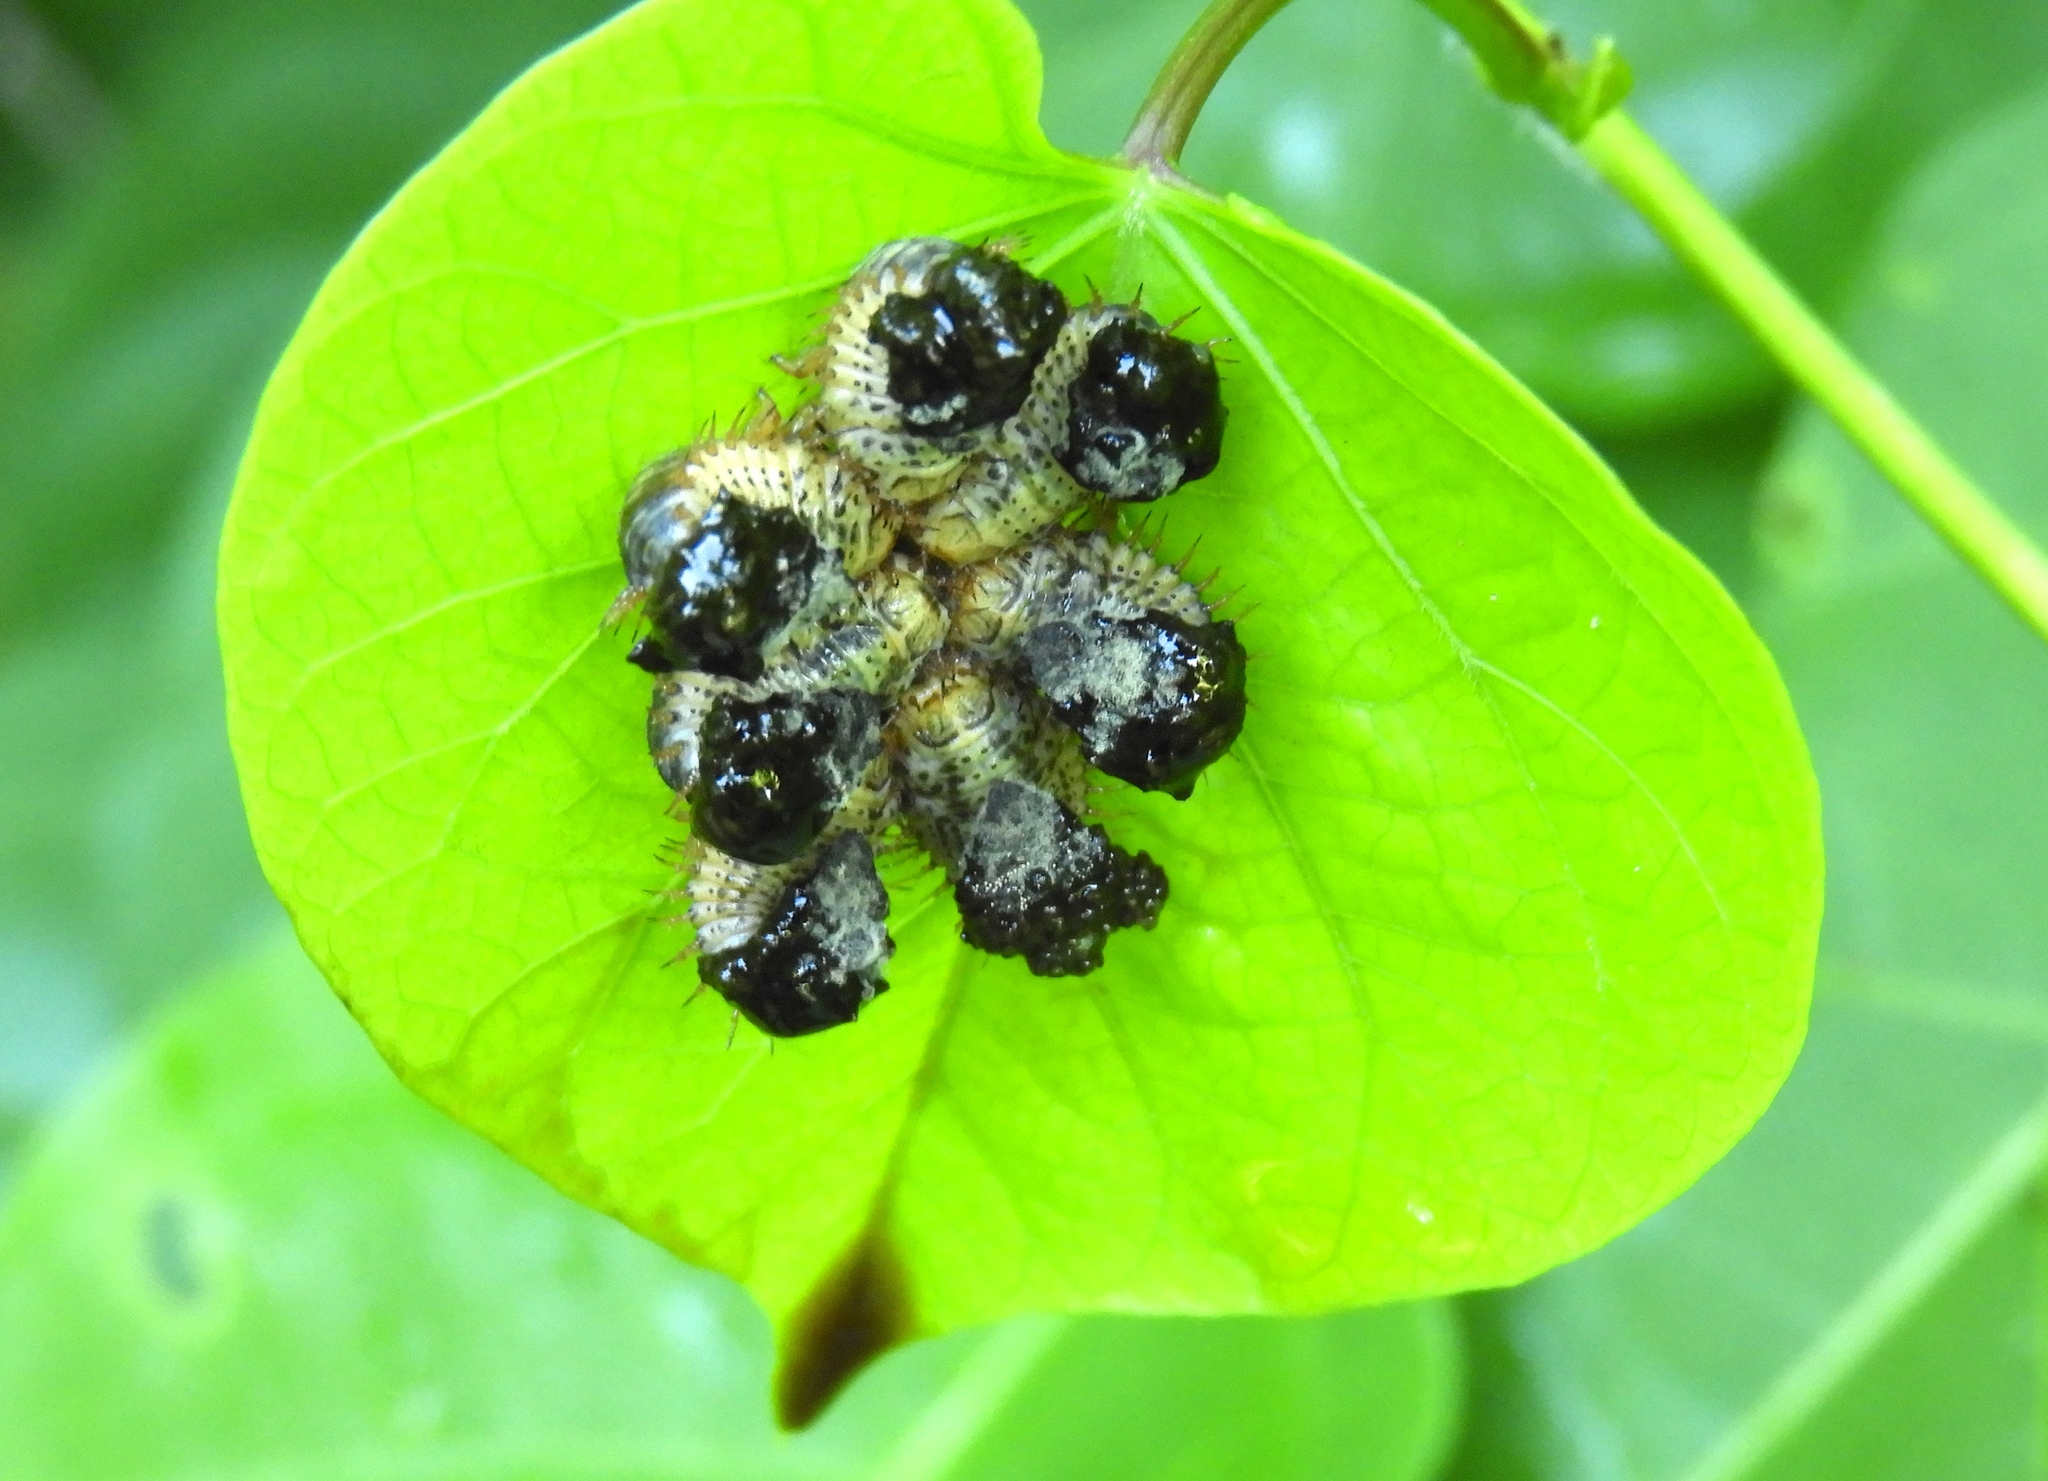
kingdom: Animalia
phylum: Arthropoda
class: Insecta
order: Coleoptera
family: Chrysomelidae
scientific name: Chrysomelidae
